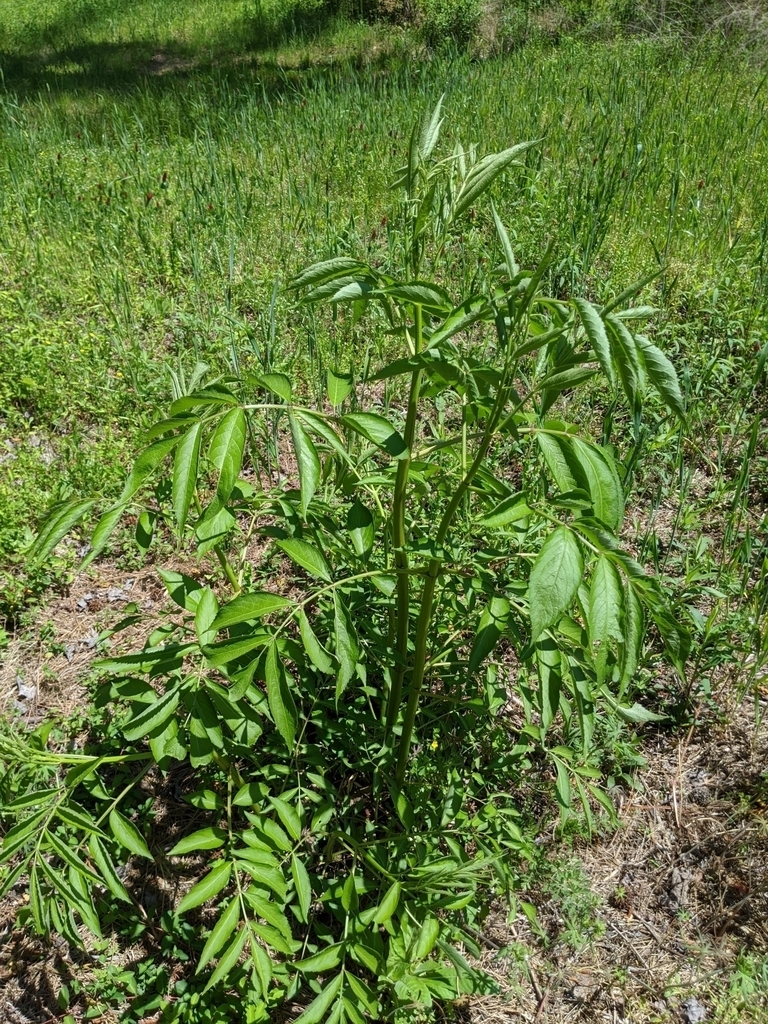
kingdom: Plantae
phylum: Tracheophyta
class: Magnoliopsida
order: Dipsacales
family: Viburnaceae
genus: Sambucus
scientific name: Sambucus canadensis
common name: American elder
